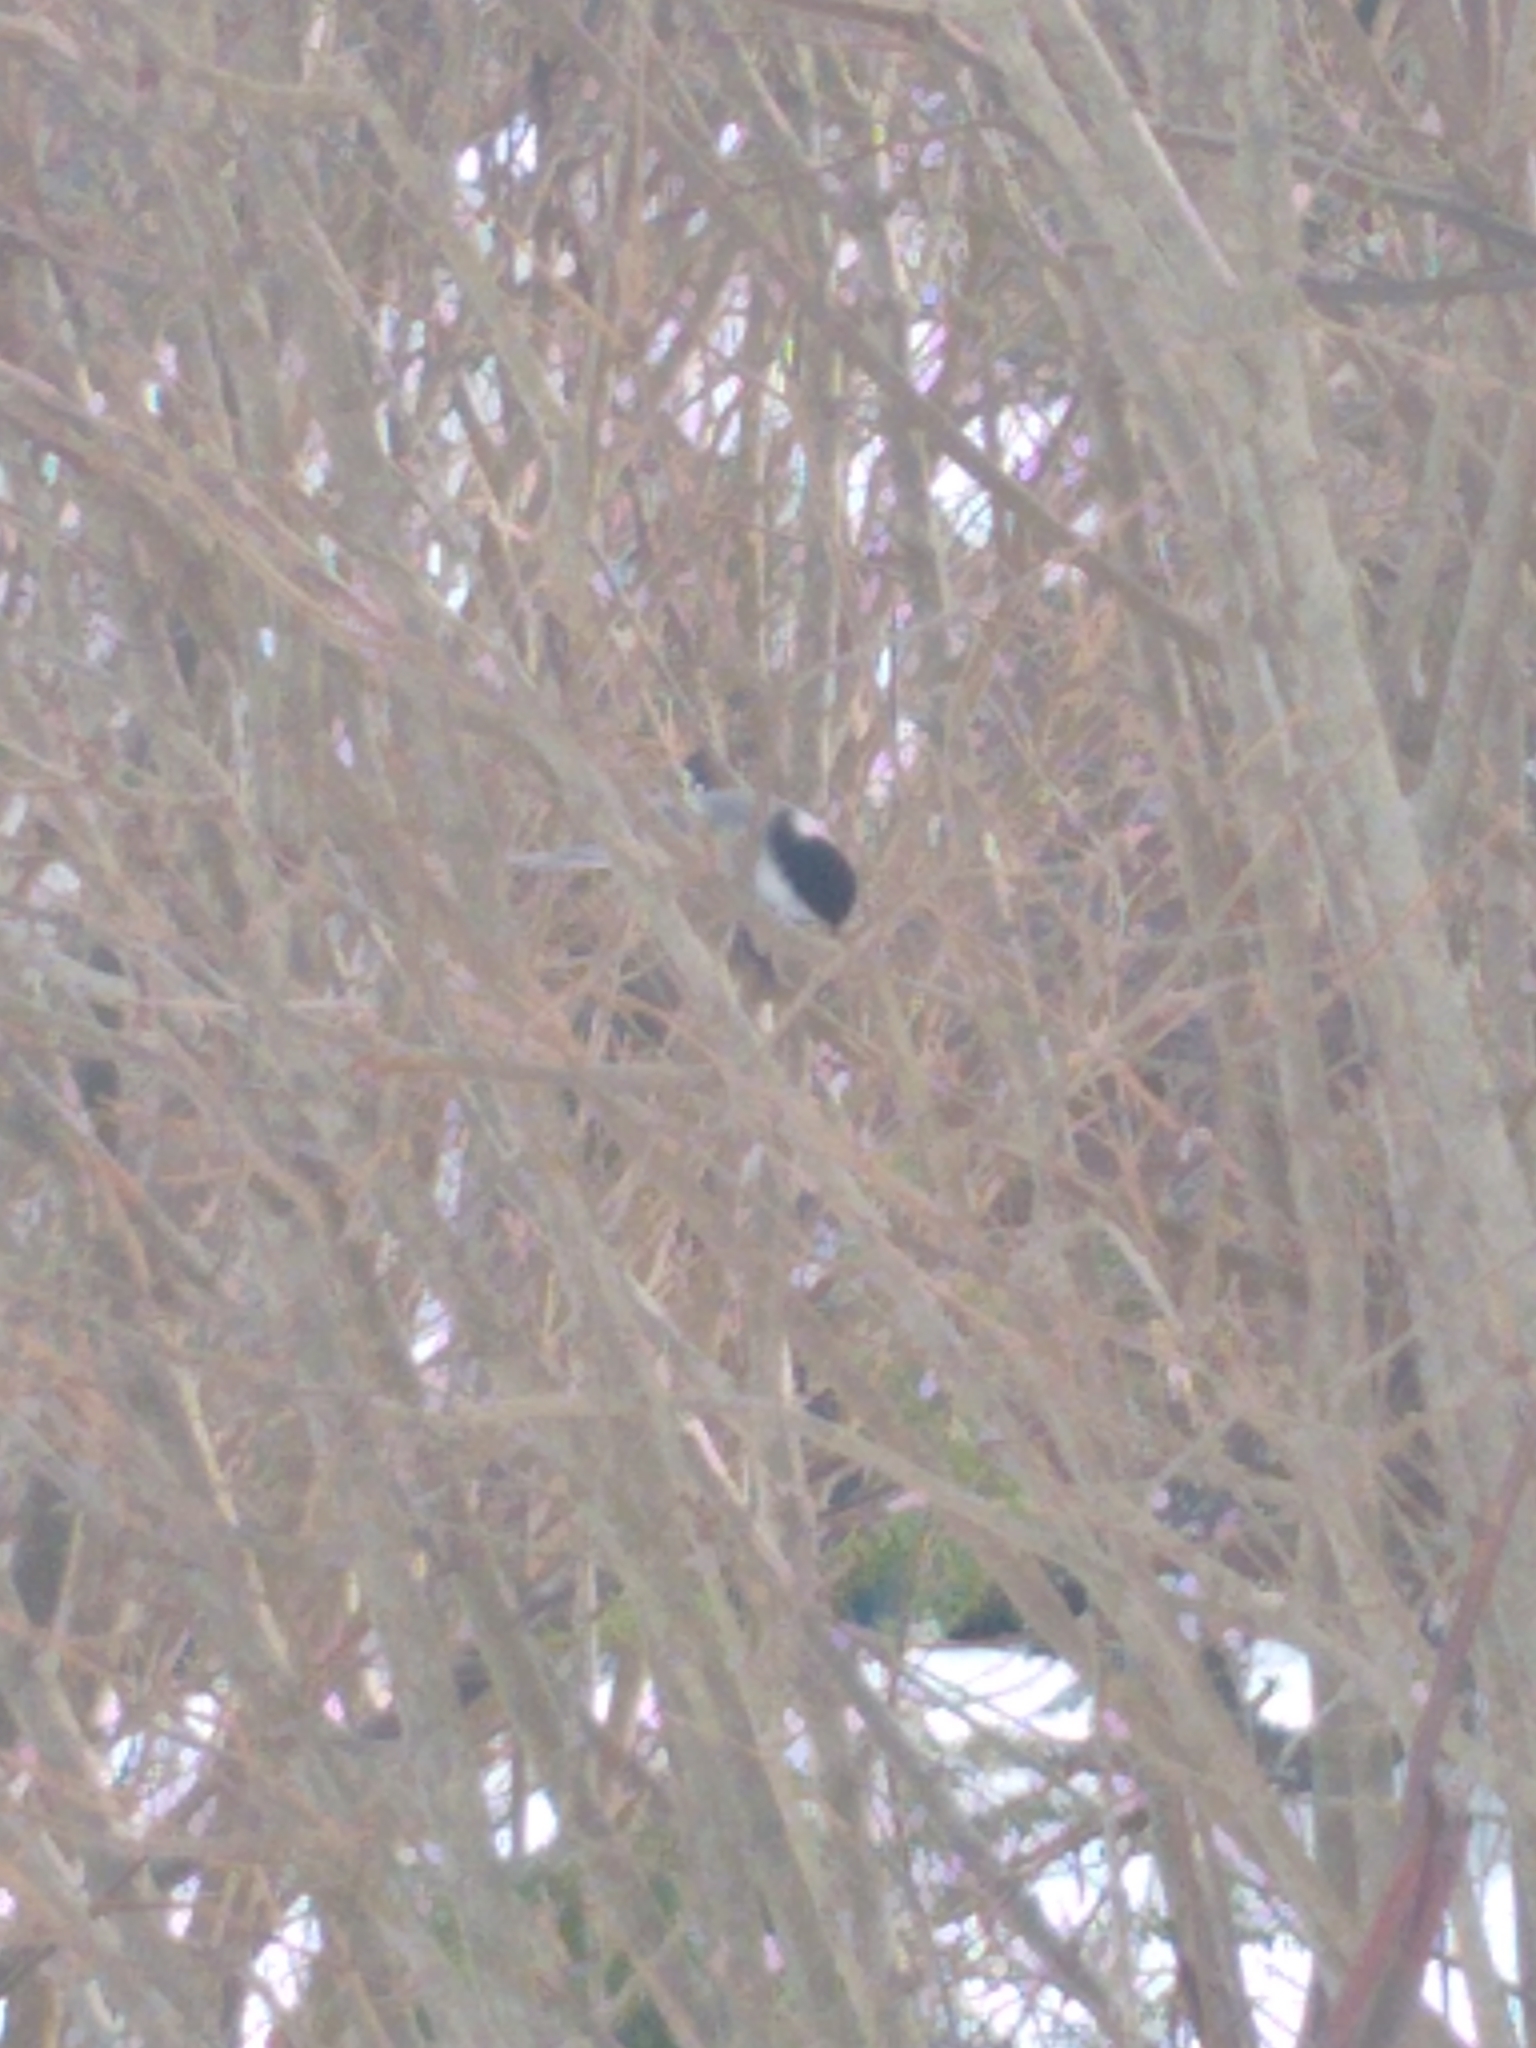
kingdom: Animalia
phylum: Chordata
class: Aves
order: Passeriformes
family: Paridae
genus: Poecile
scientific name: Poecile atricapillus
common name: Black-capped chickadee
